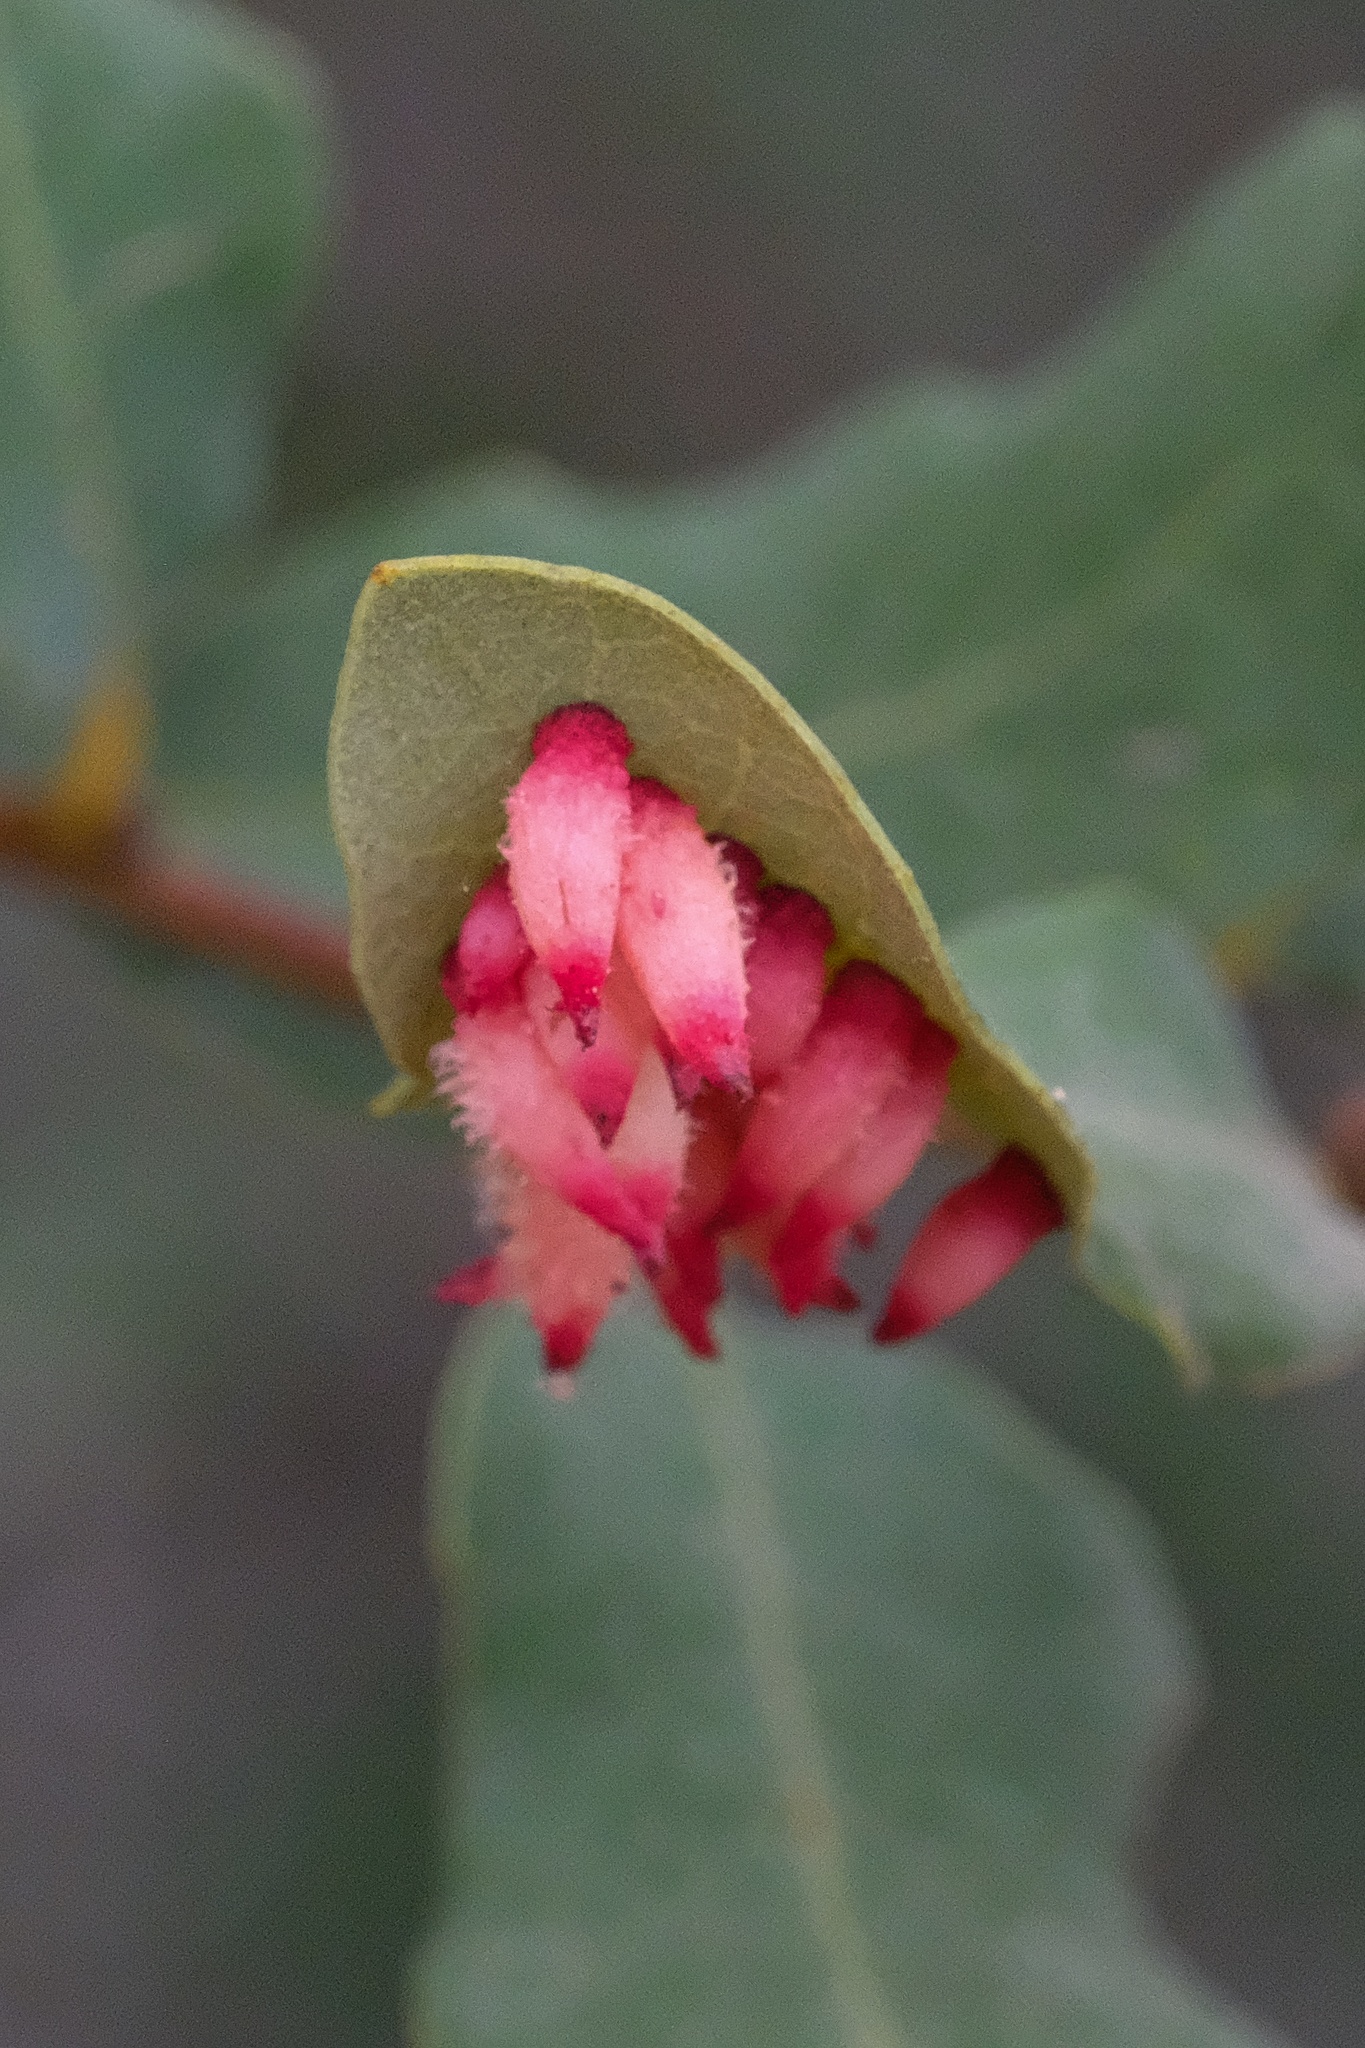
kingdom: Animalia
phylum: Arthropoda
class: Insecta
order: Hymenoptera
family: Cynipidae
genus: Andricus
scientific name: Andricus
